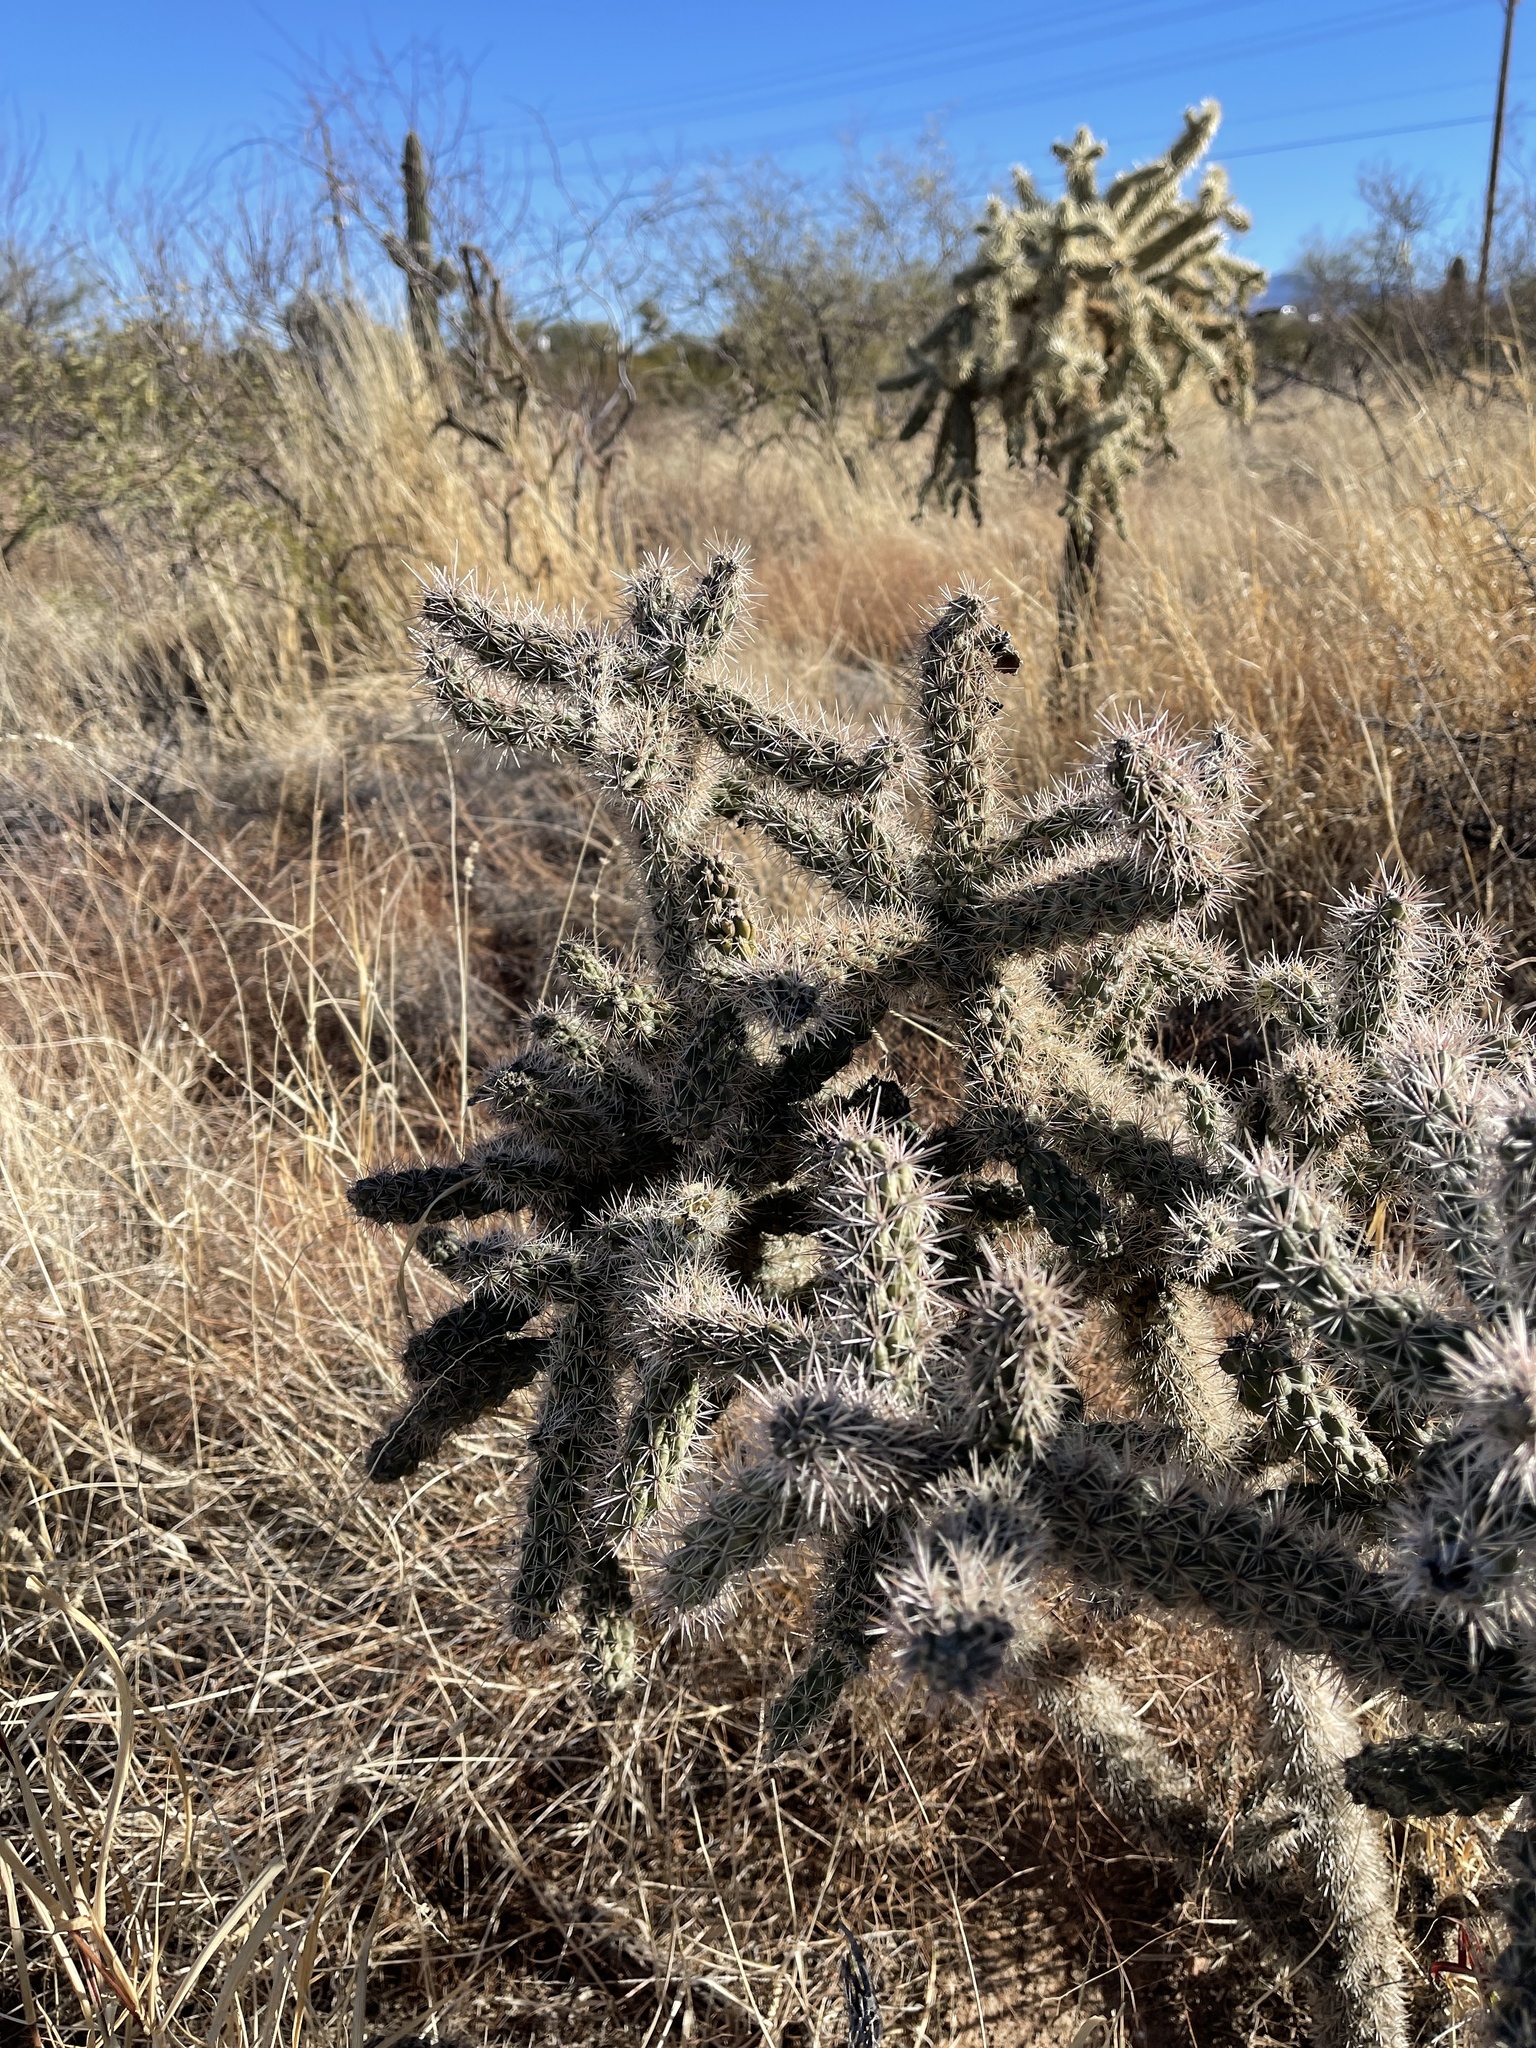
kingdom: Plantae
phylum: Tracheophyta
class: Magnoliopsida
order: Caryophyllales
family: Cactaceae
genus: Cylindropuntia
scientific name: Cylindropuntia thurberi
